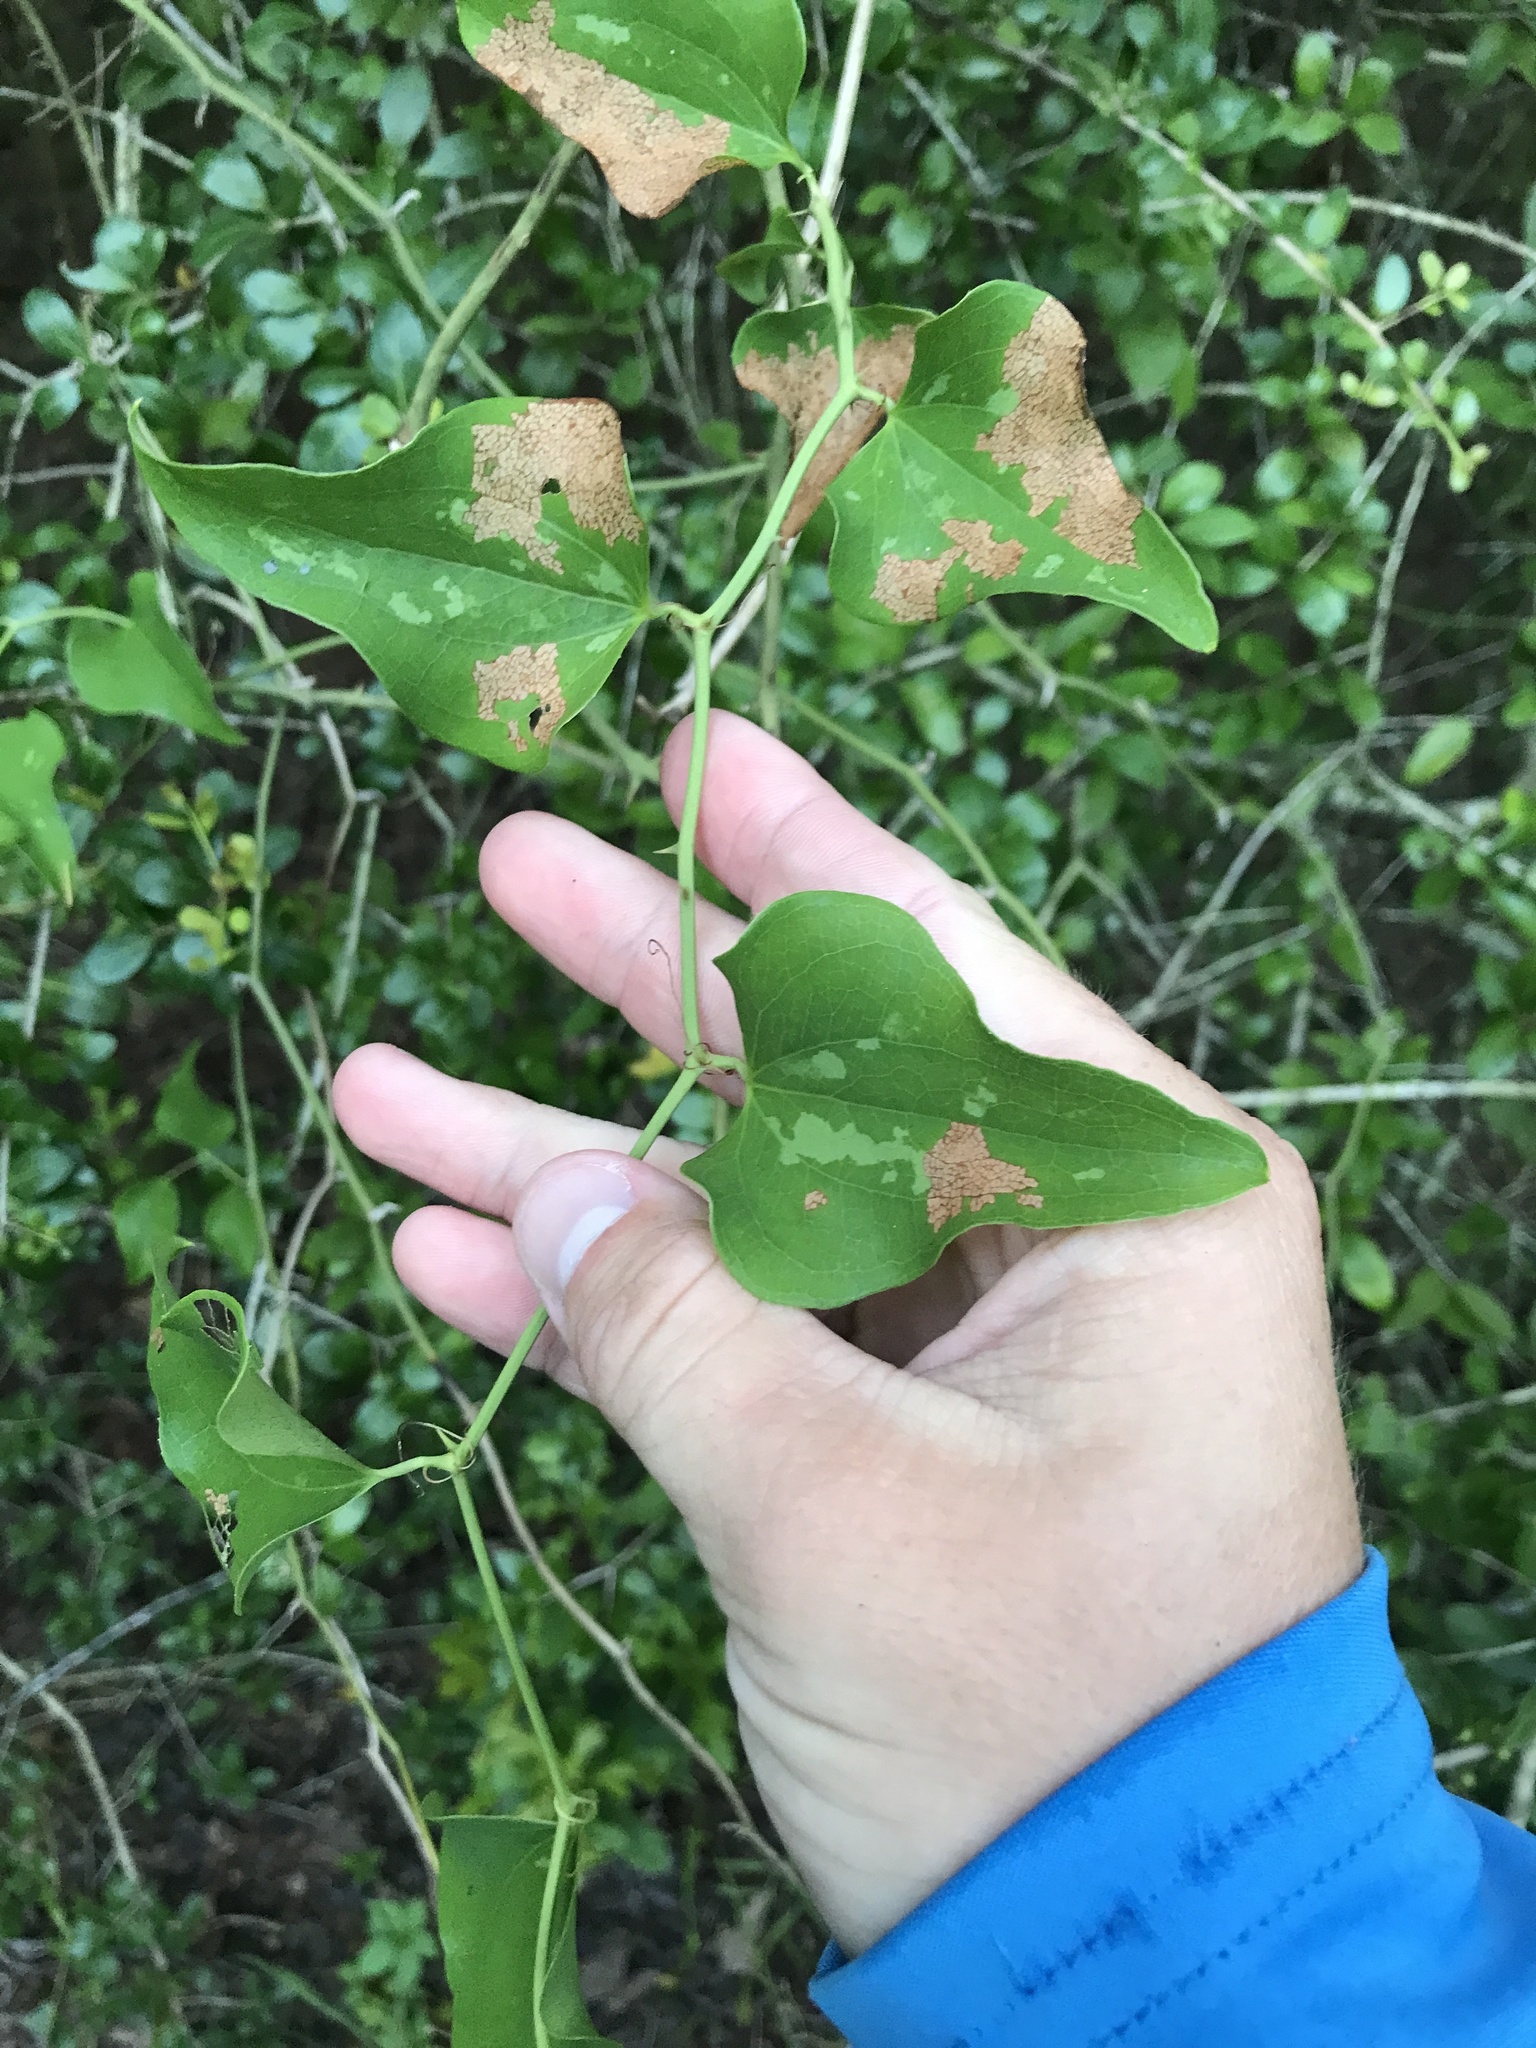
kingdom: Plantae
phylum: Tracheophyta
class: Liliopsida
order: Liliales
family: Smilacaceae
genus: Smilax
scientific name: Smilax bona-nox
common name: Catbrier
